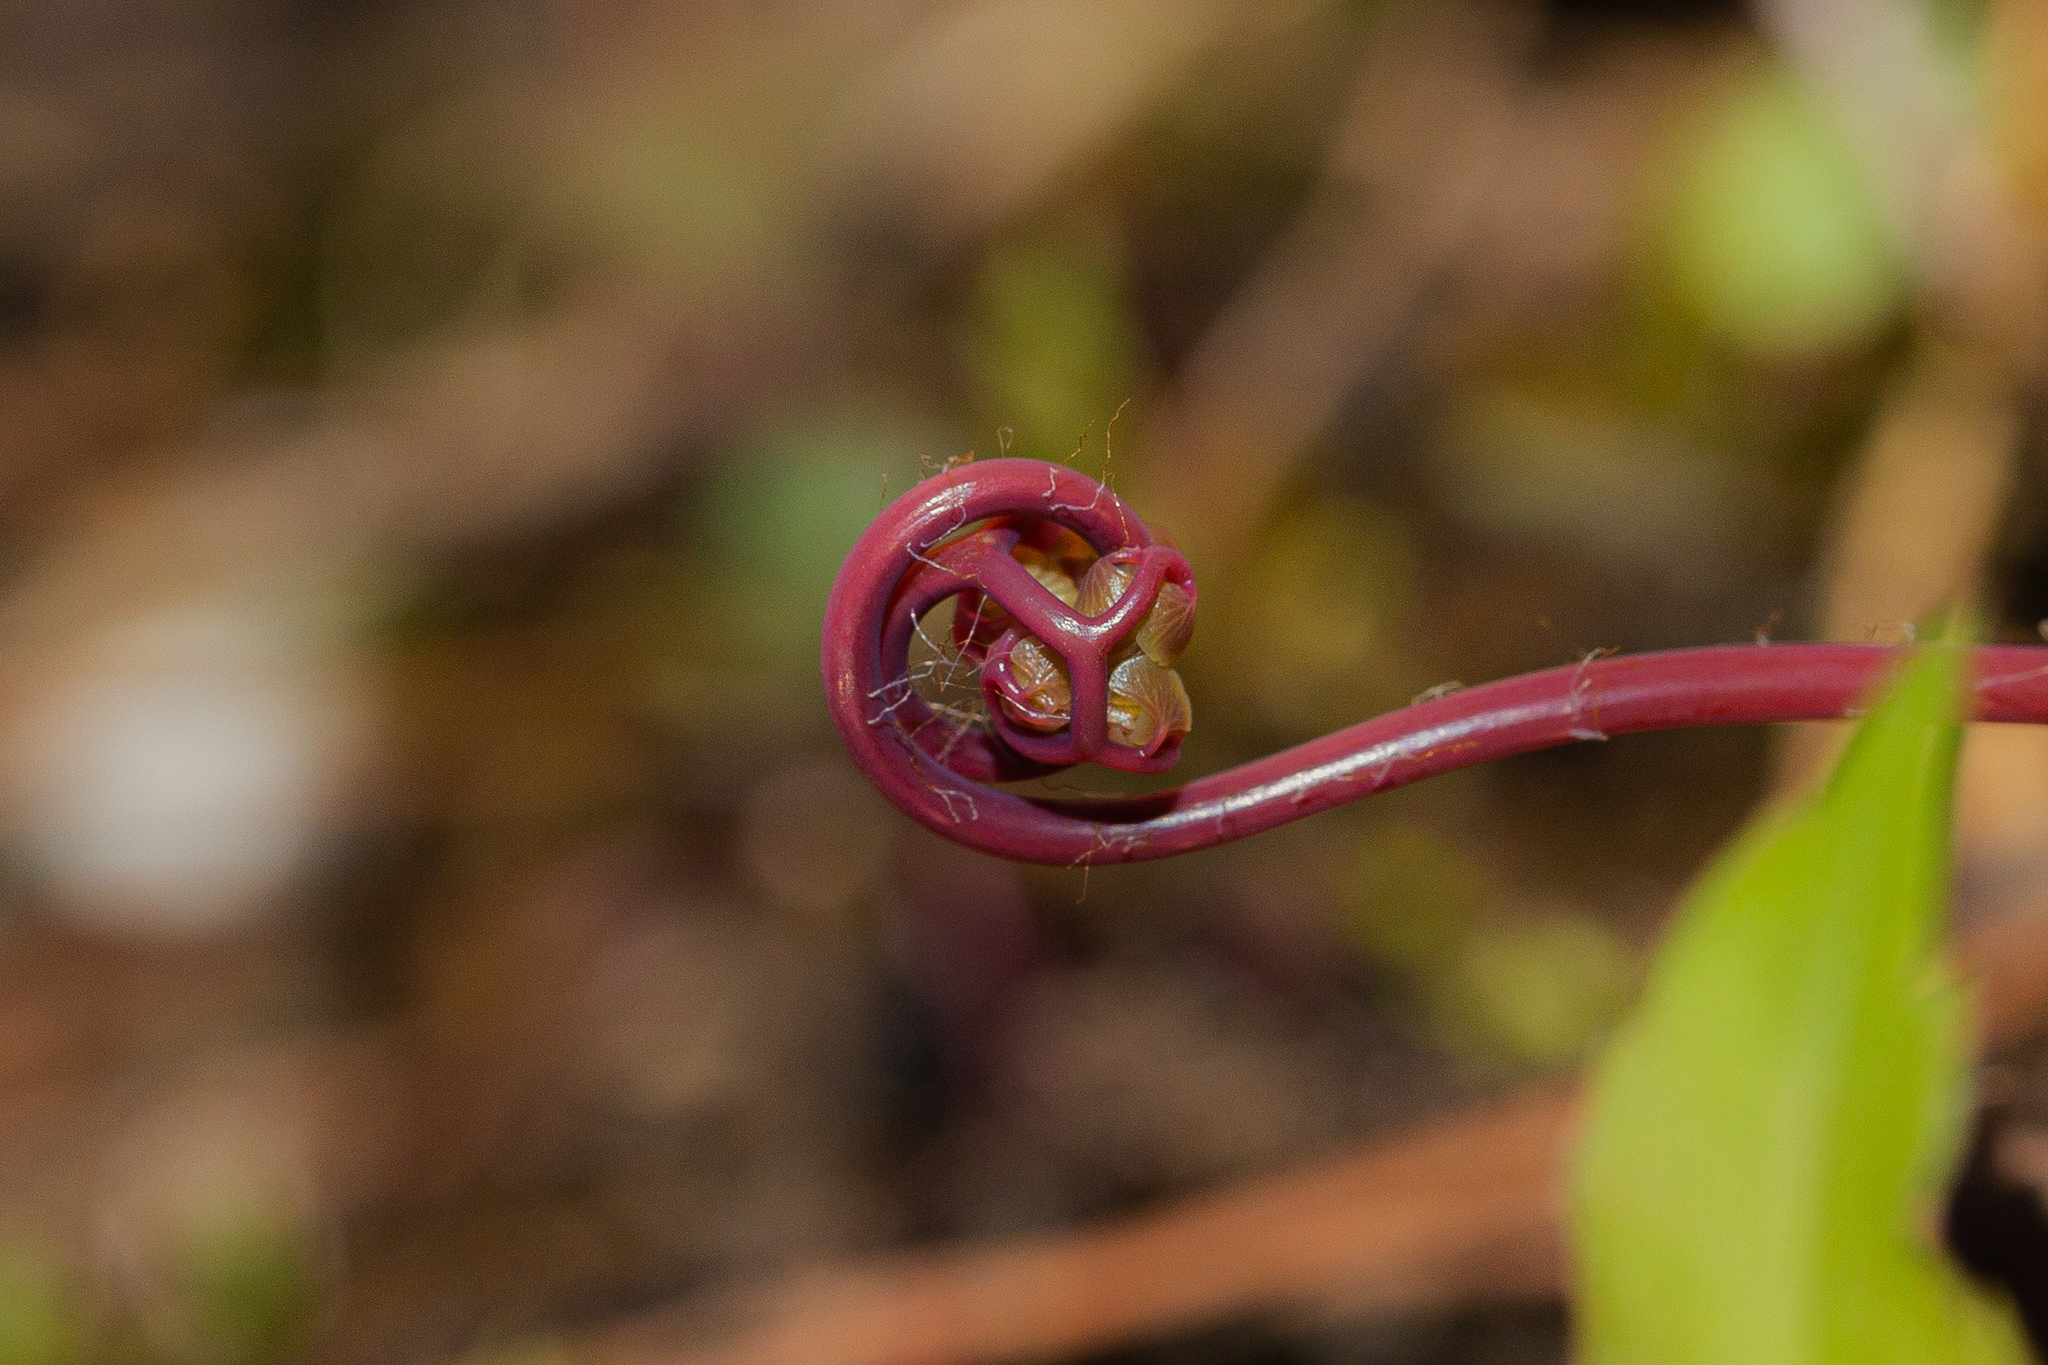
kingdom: Plantae
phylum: Tracheophyta
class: Polypodiopsida
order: Polypodiales
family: Pteridaceae
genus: Adiantum
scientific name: Adiantum pedatum
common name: Five-finger fern
